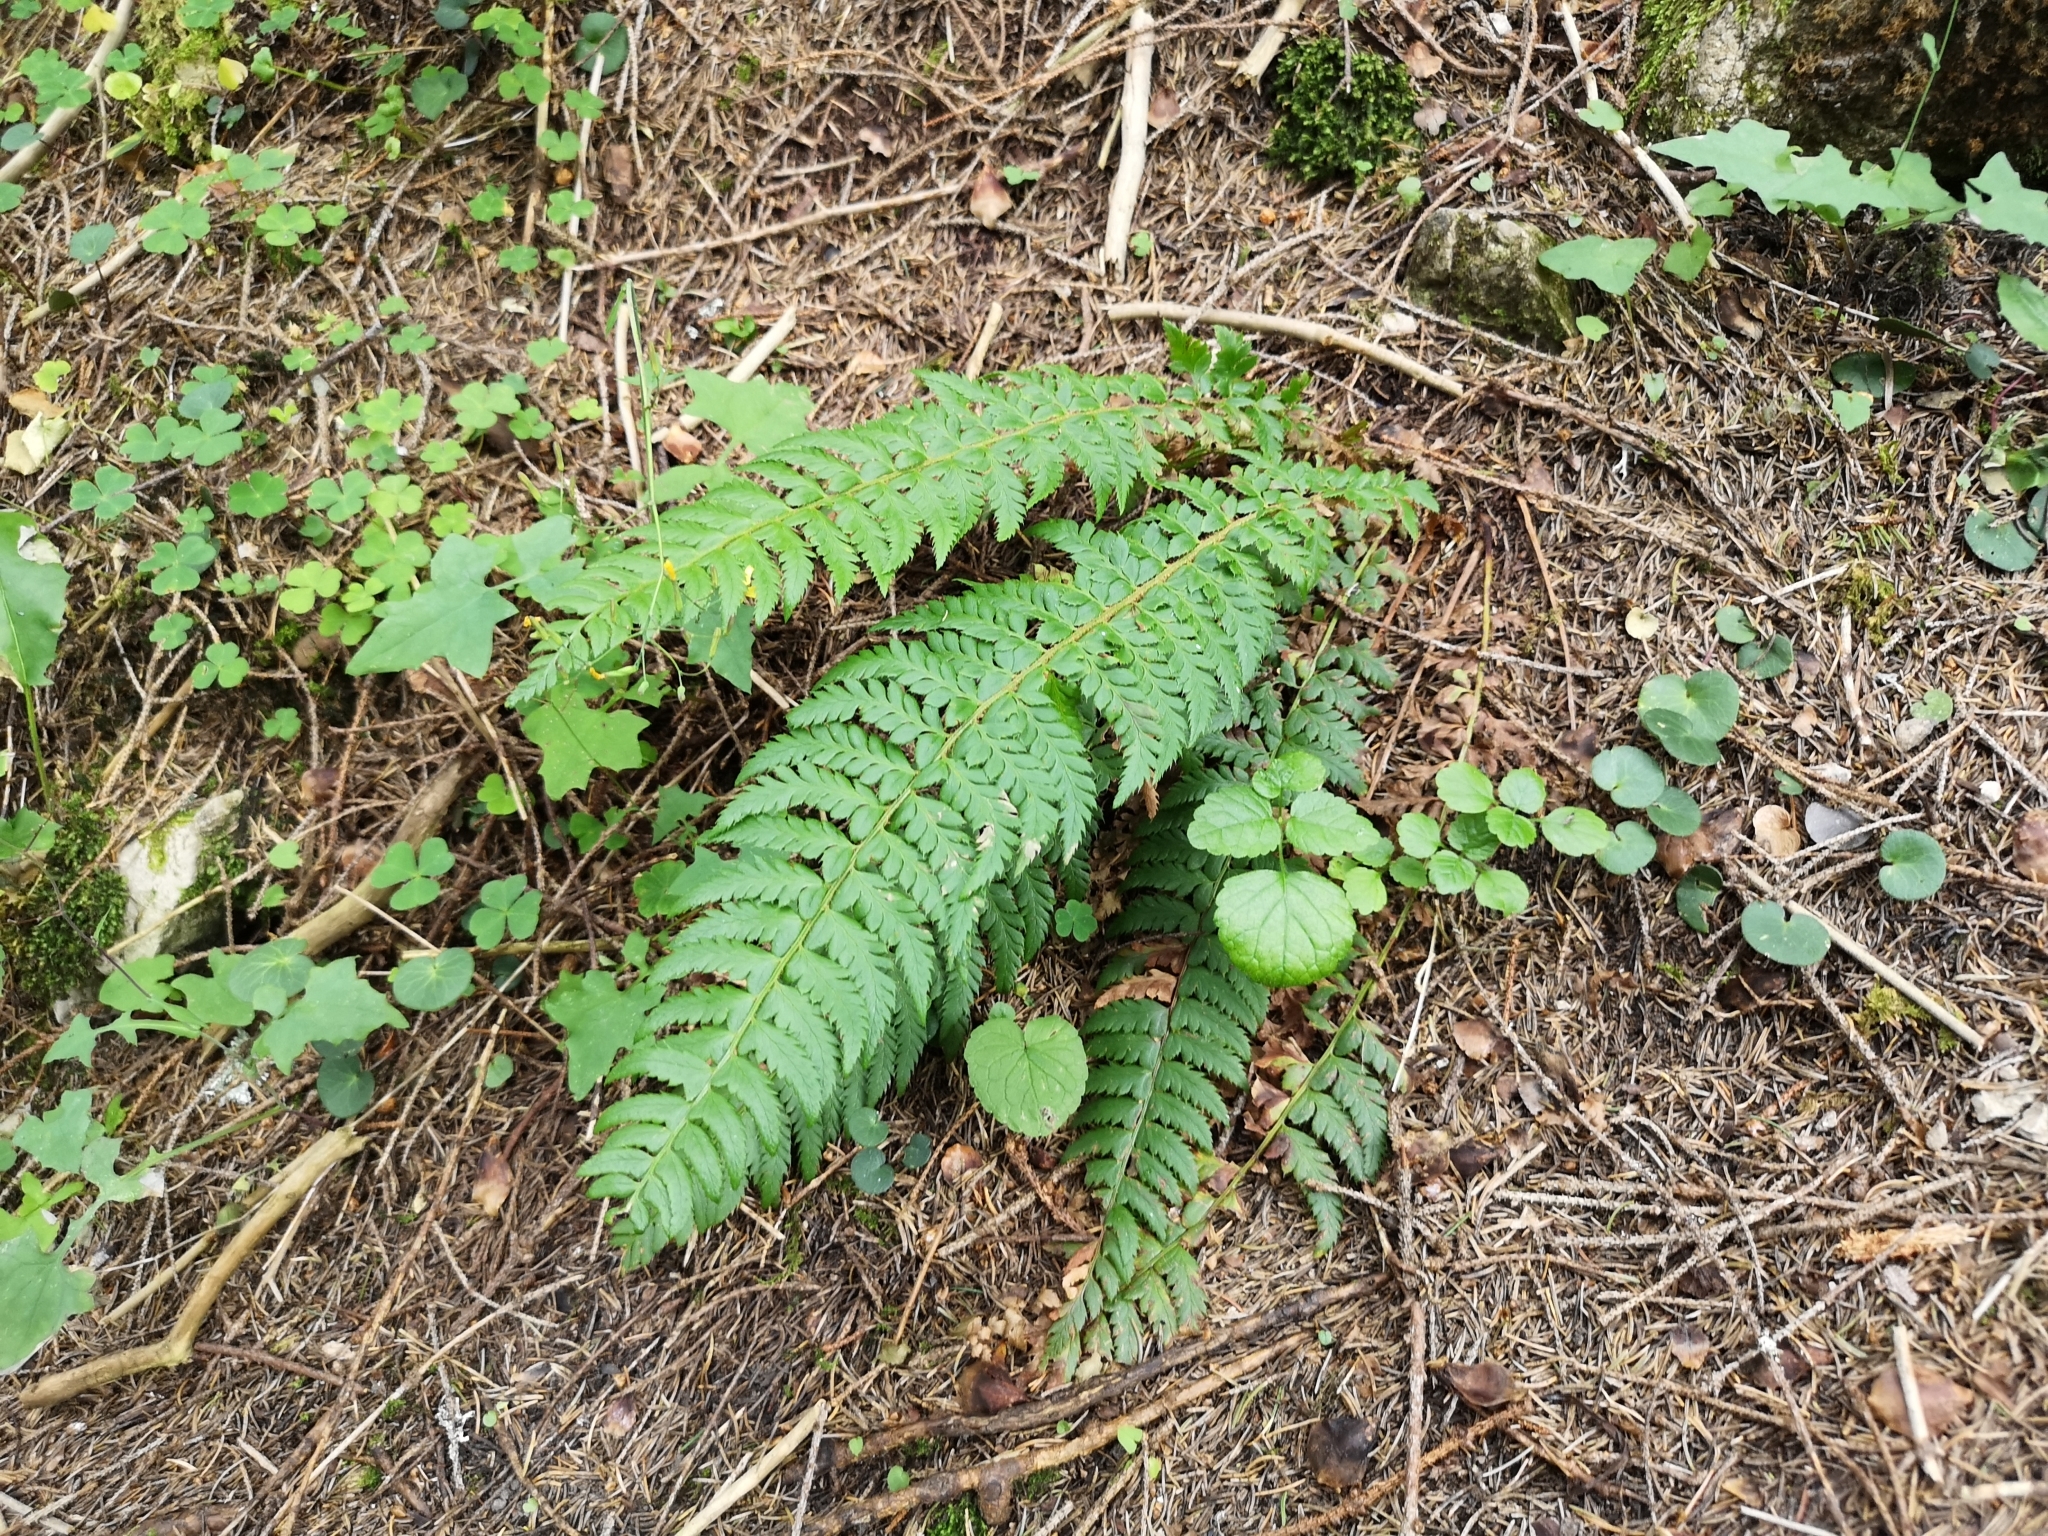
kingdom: Plantae
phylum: Tracheophyta
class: Polypodiopsida
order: Polypodiales
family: Dryopteridaceae
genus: Polystichum
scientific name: Polystichum aculeatum
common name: Hard shield-fern
